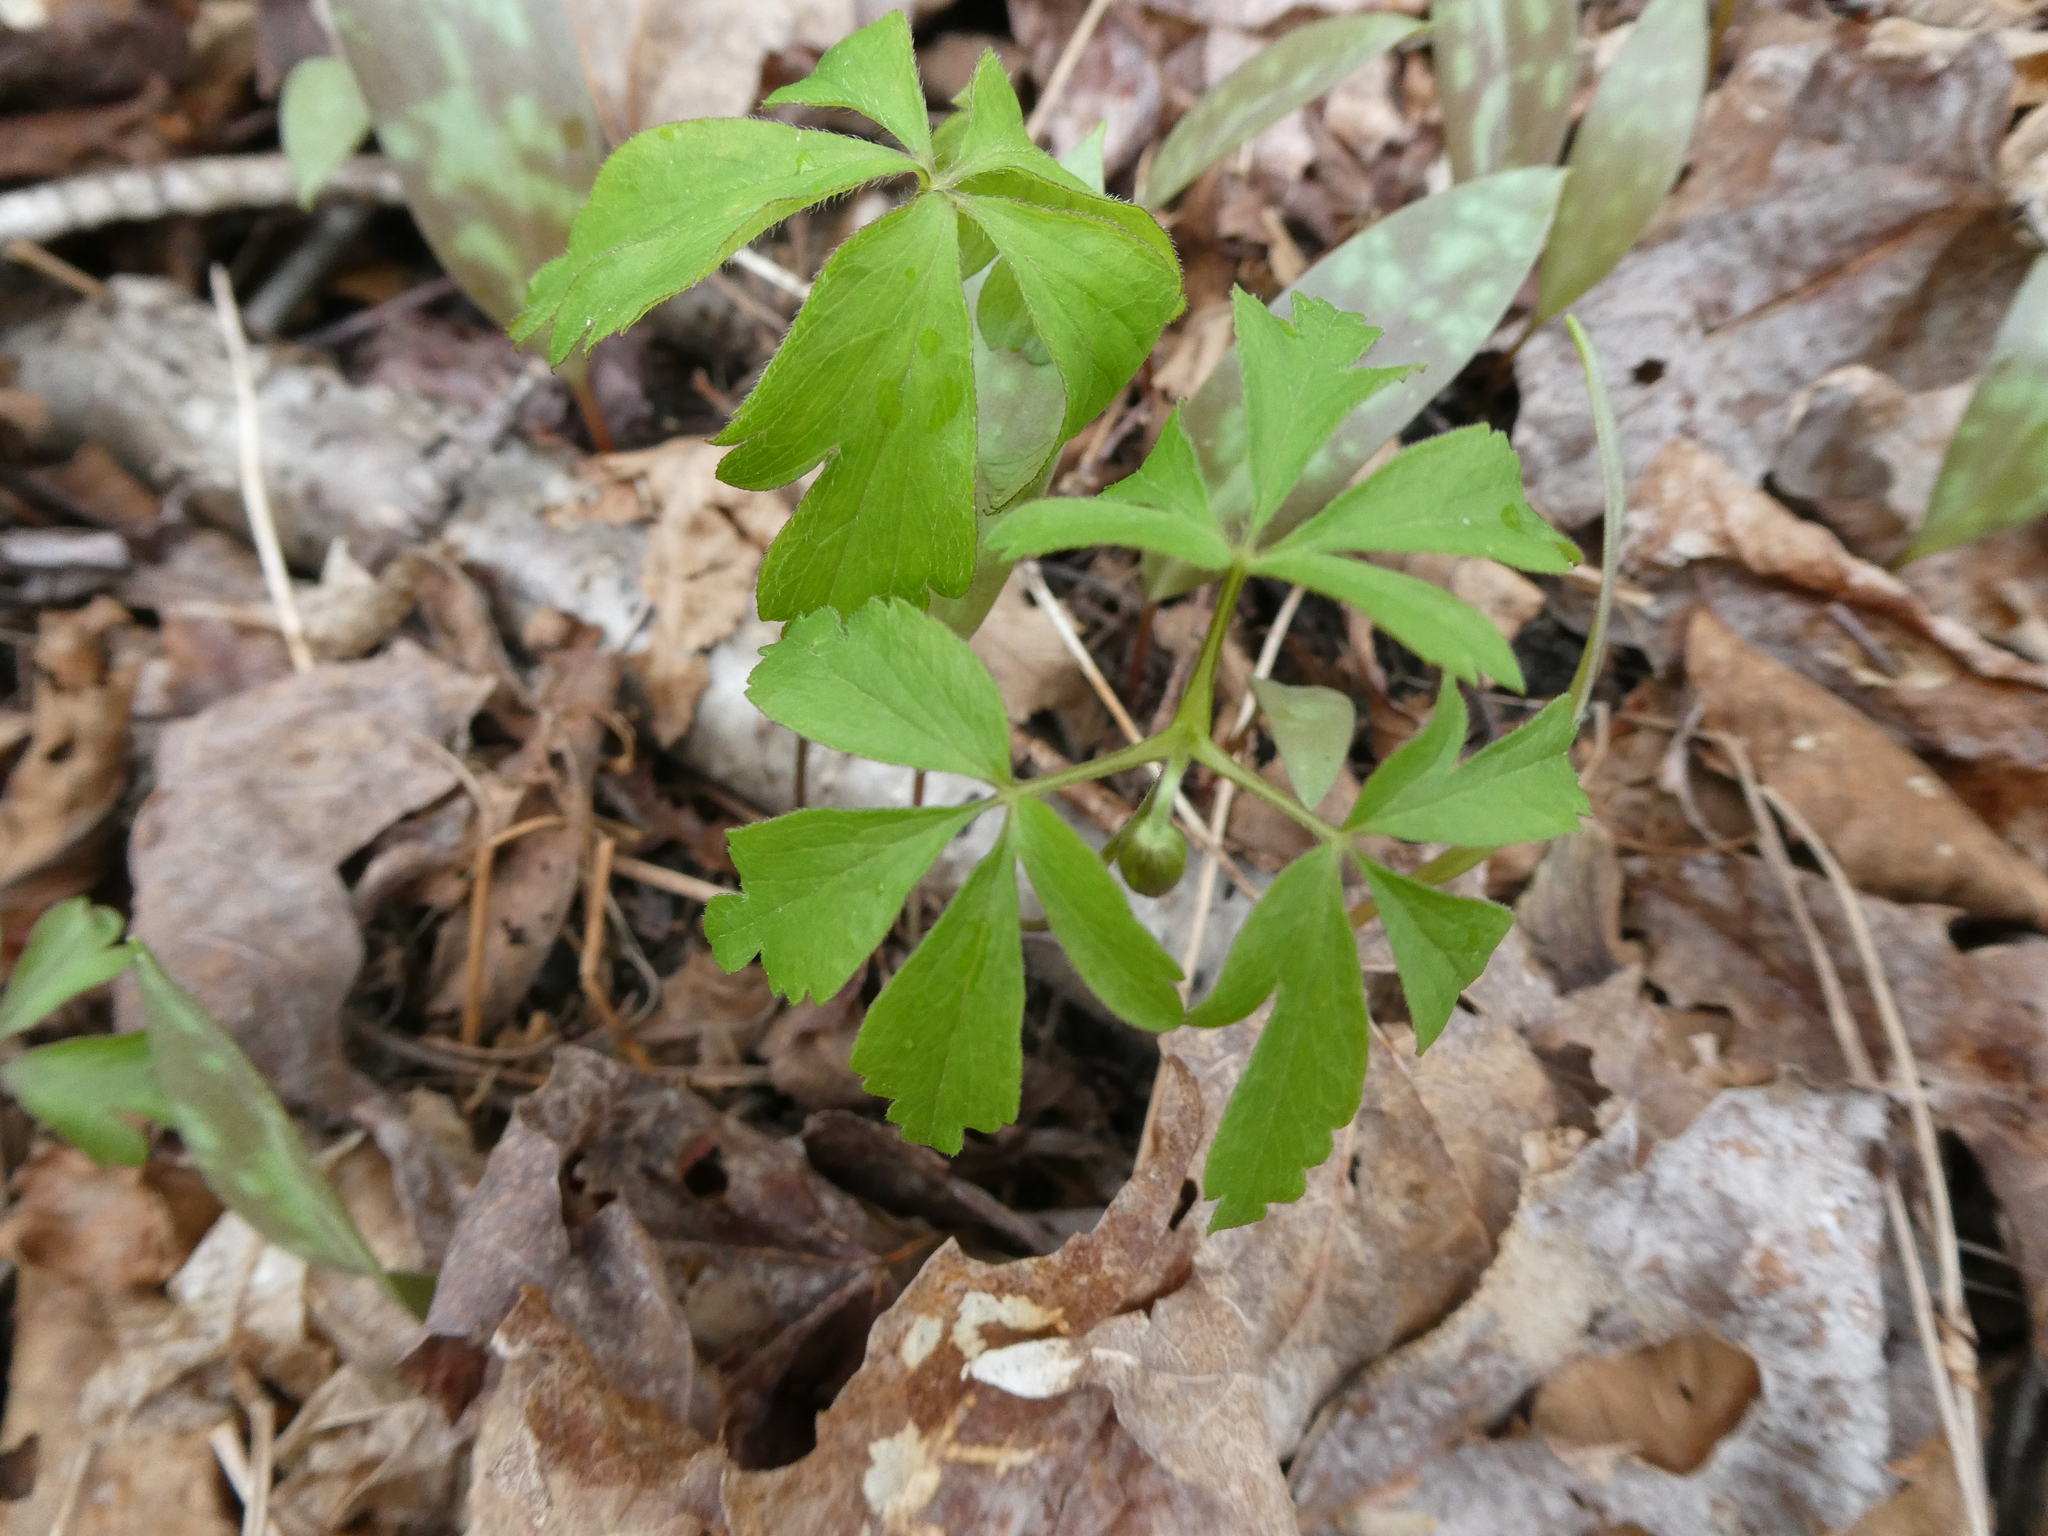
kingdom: Plantae
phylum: Tracheophyta
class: Magnoliopsida
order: Ranunculales
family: Ranunculaceae
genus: Anemone
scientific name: Anemone quinquefolia
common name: Wood anemone
